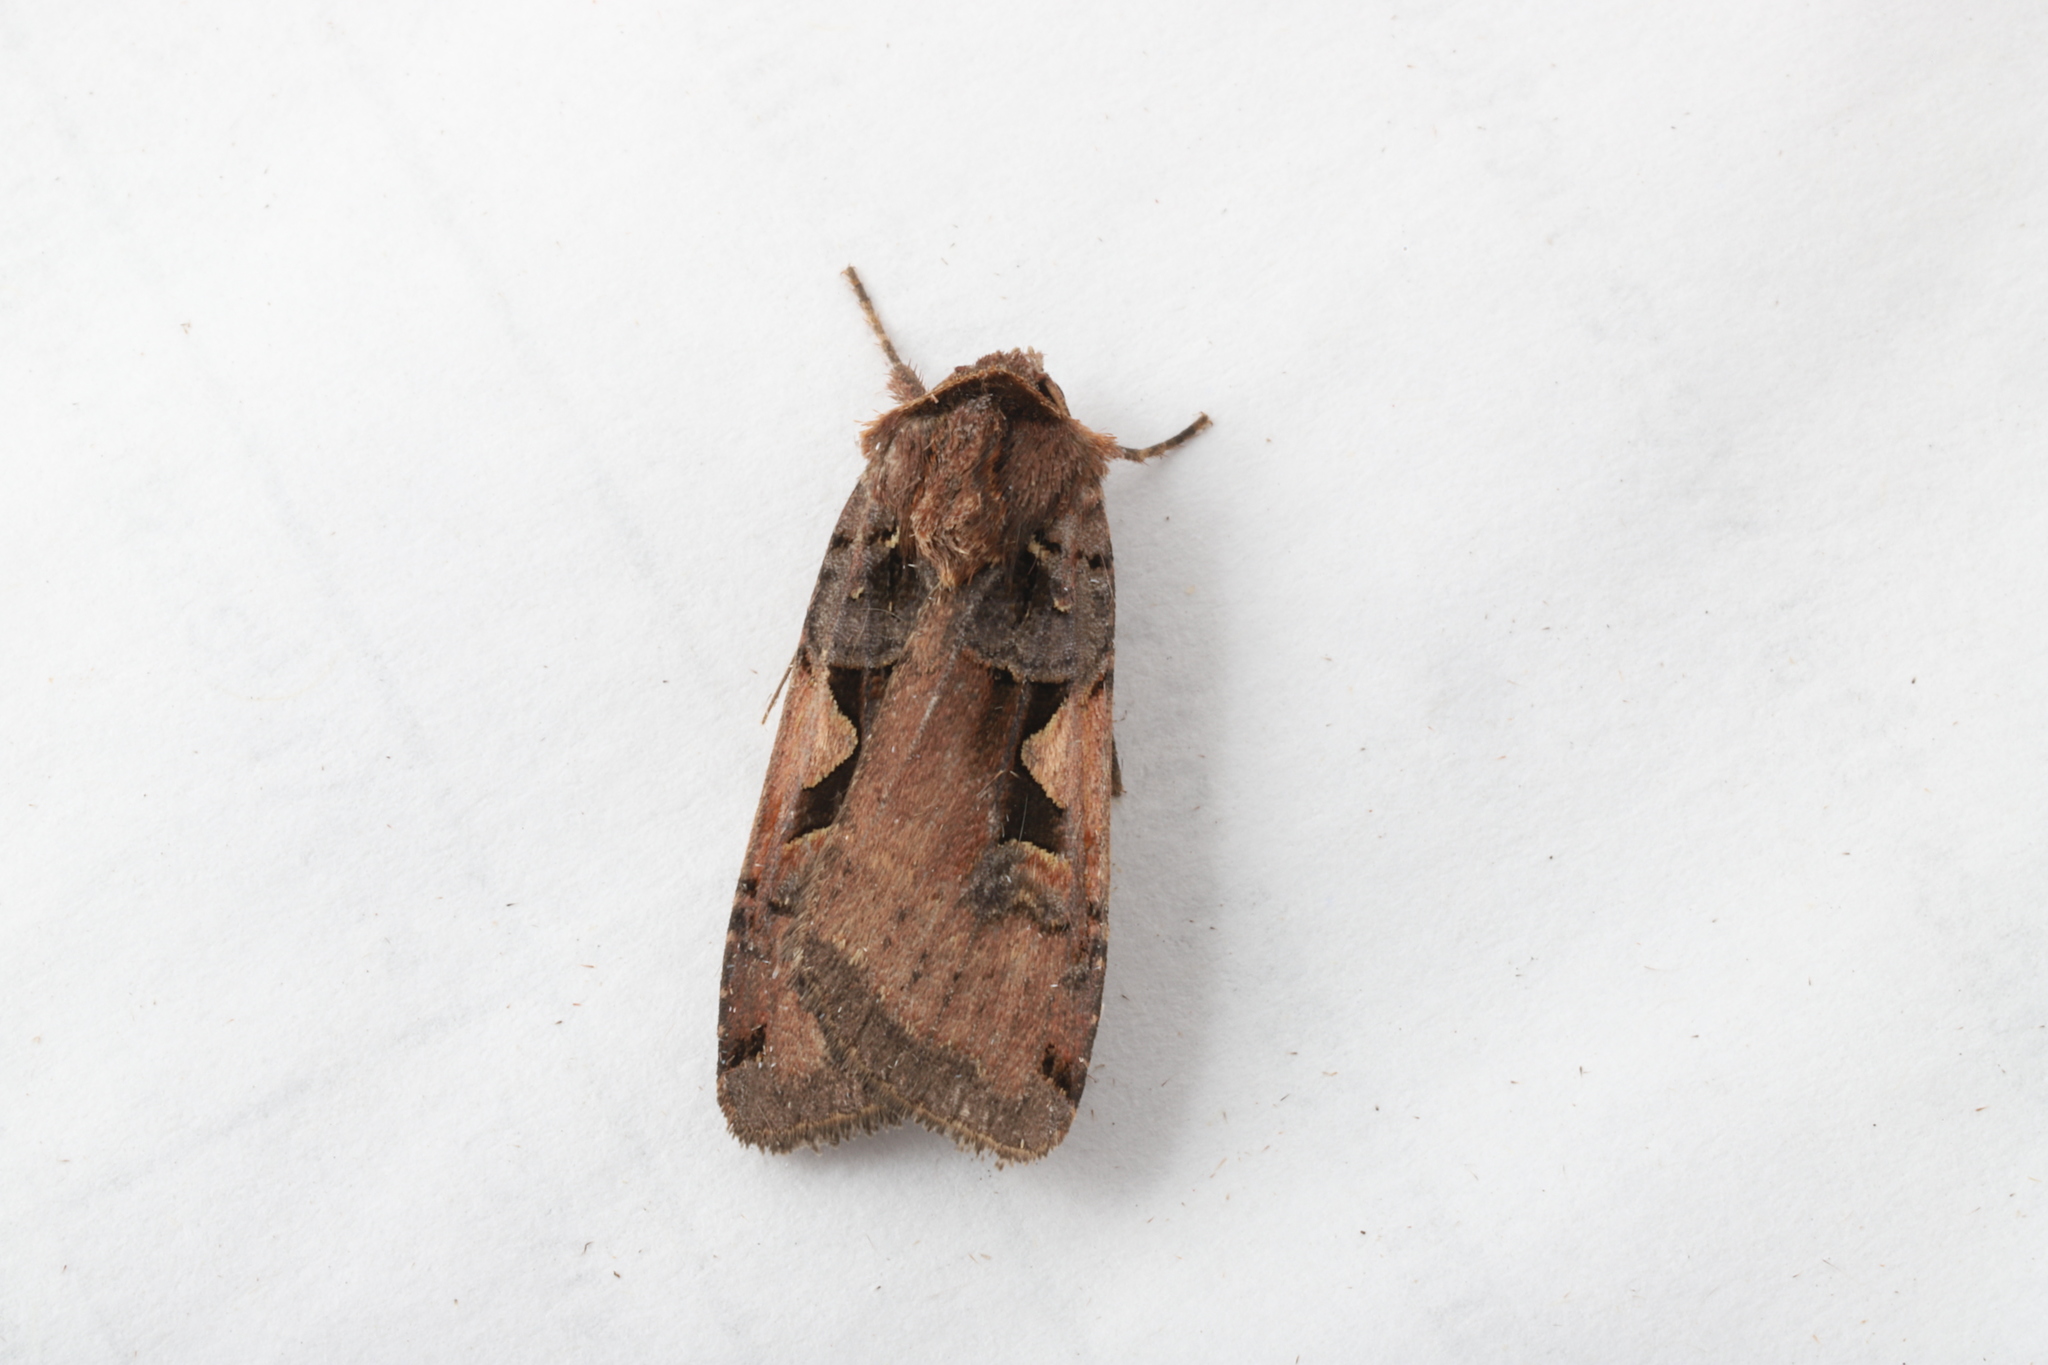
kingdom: Animalia
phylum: Arthropoda
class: Insecta
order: Lepidoptera
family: Noctuidae
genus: Xestia
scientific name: Xestia
